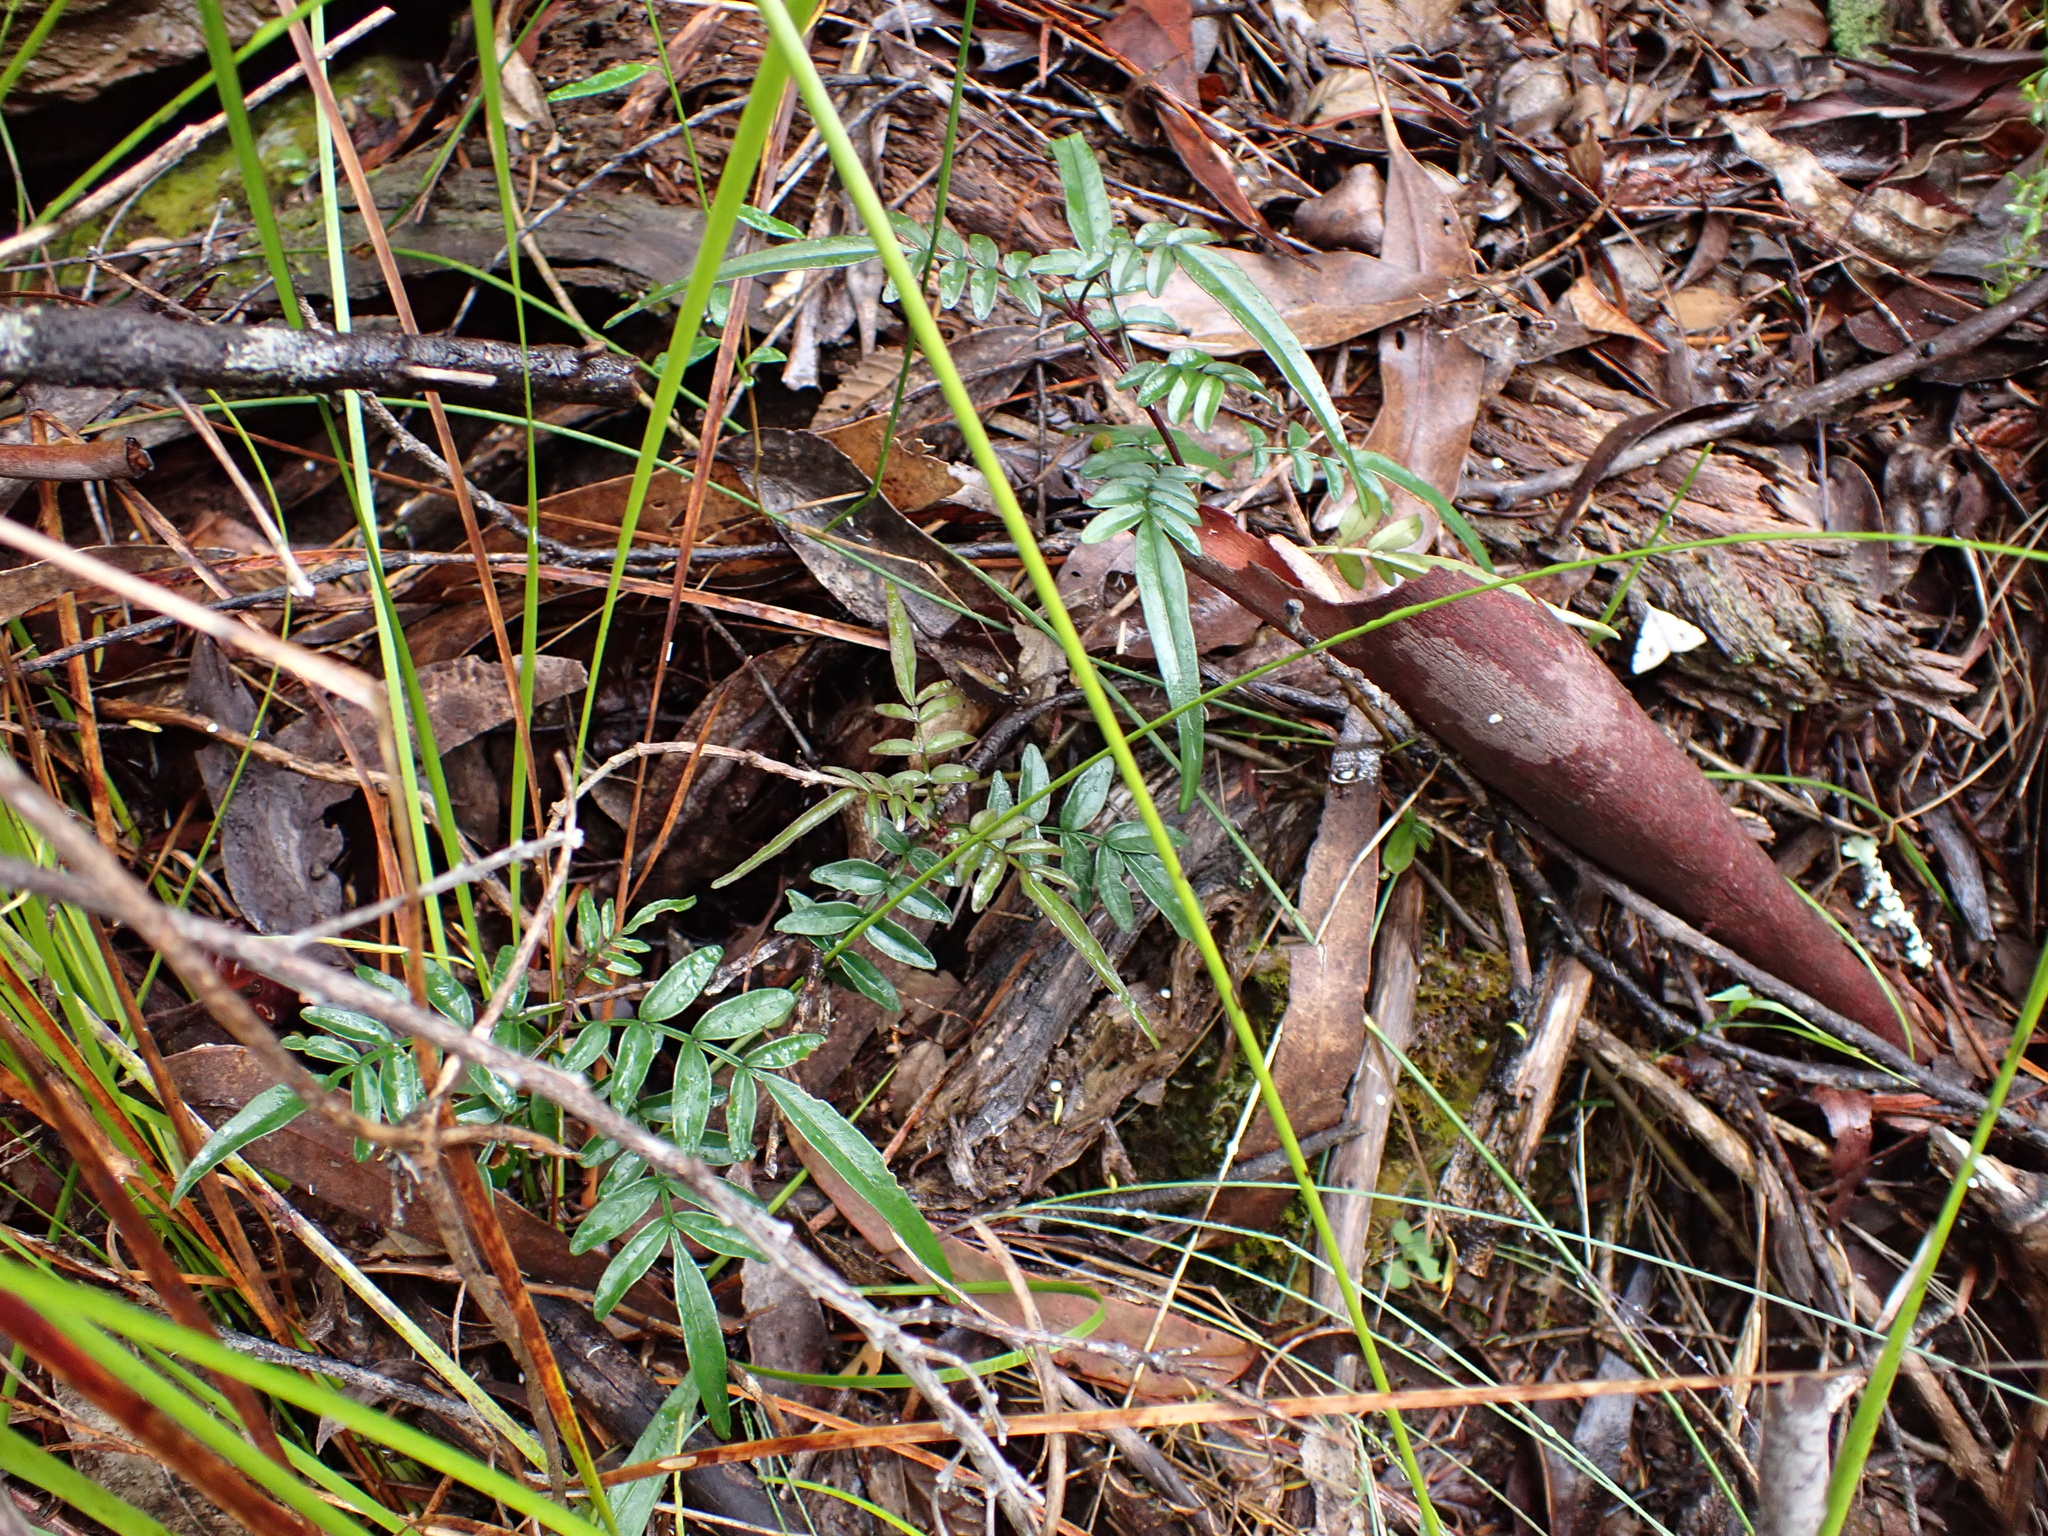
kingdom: Plantae
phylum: Tracheophyta
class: Magnoliopsida
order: Lamiales
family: Bignoniaceae
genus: Pandorea
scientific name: Pandorea pandorana
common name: Wonga-wonga-vine
